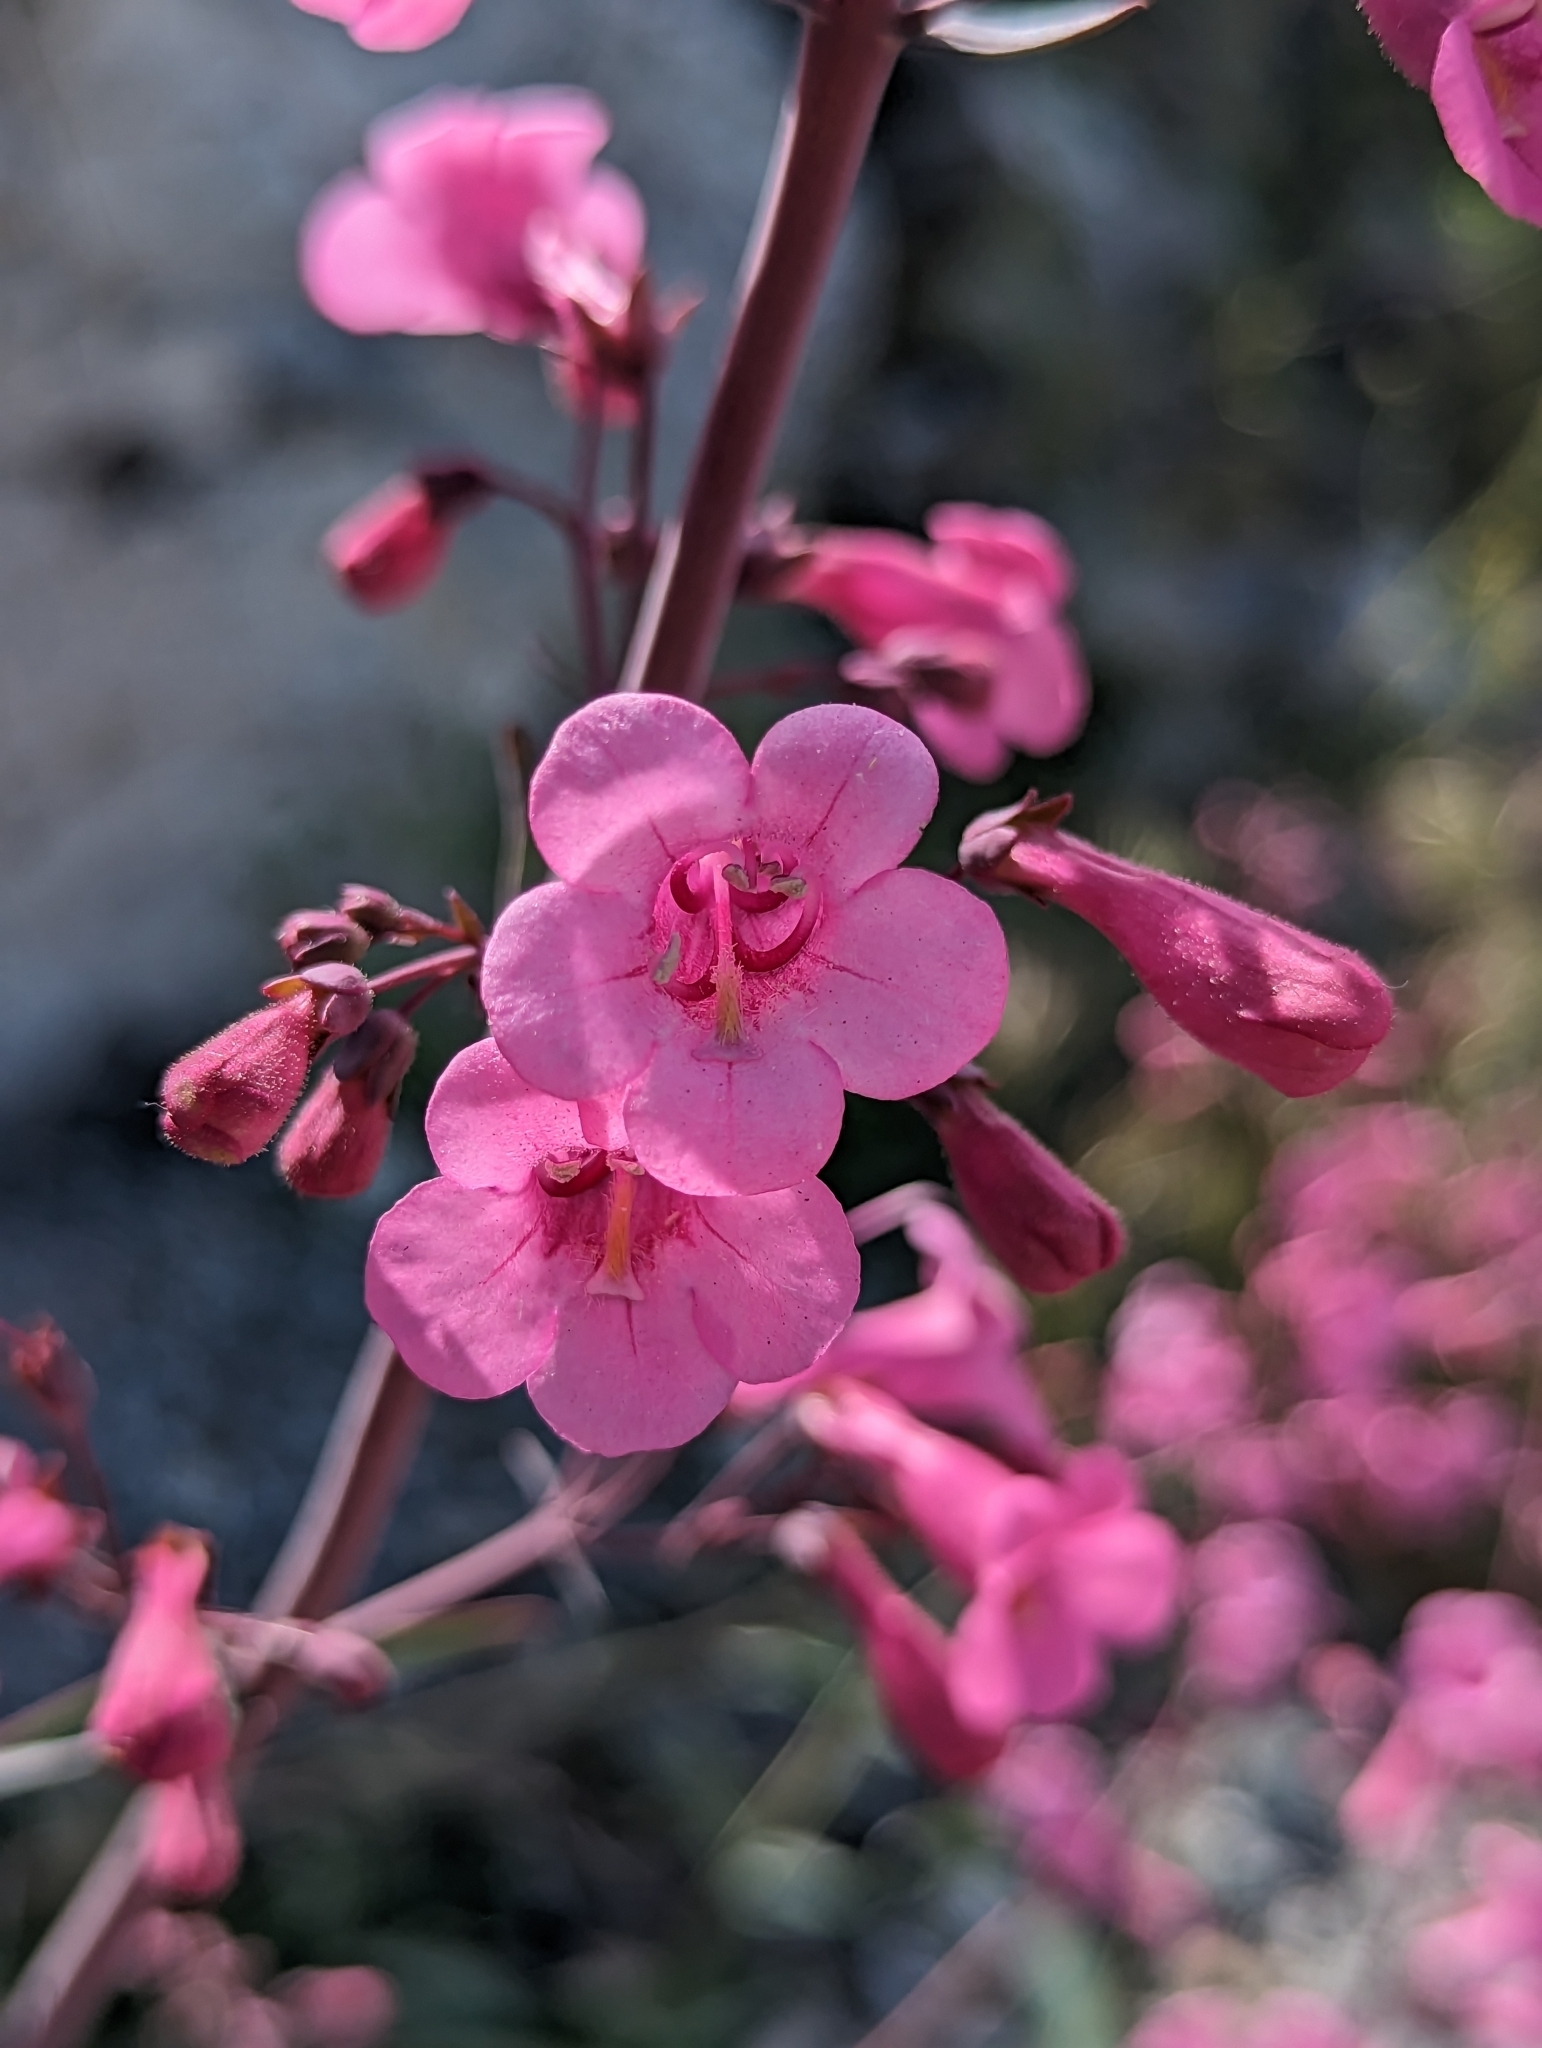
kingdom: Plantae
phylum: Tracheophyta
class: Magnoliopsida
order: Lamiales
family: Plantaginaceae
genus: Penstemon
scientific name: Penstemon parryi
